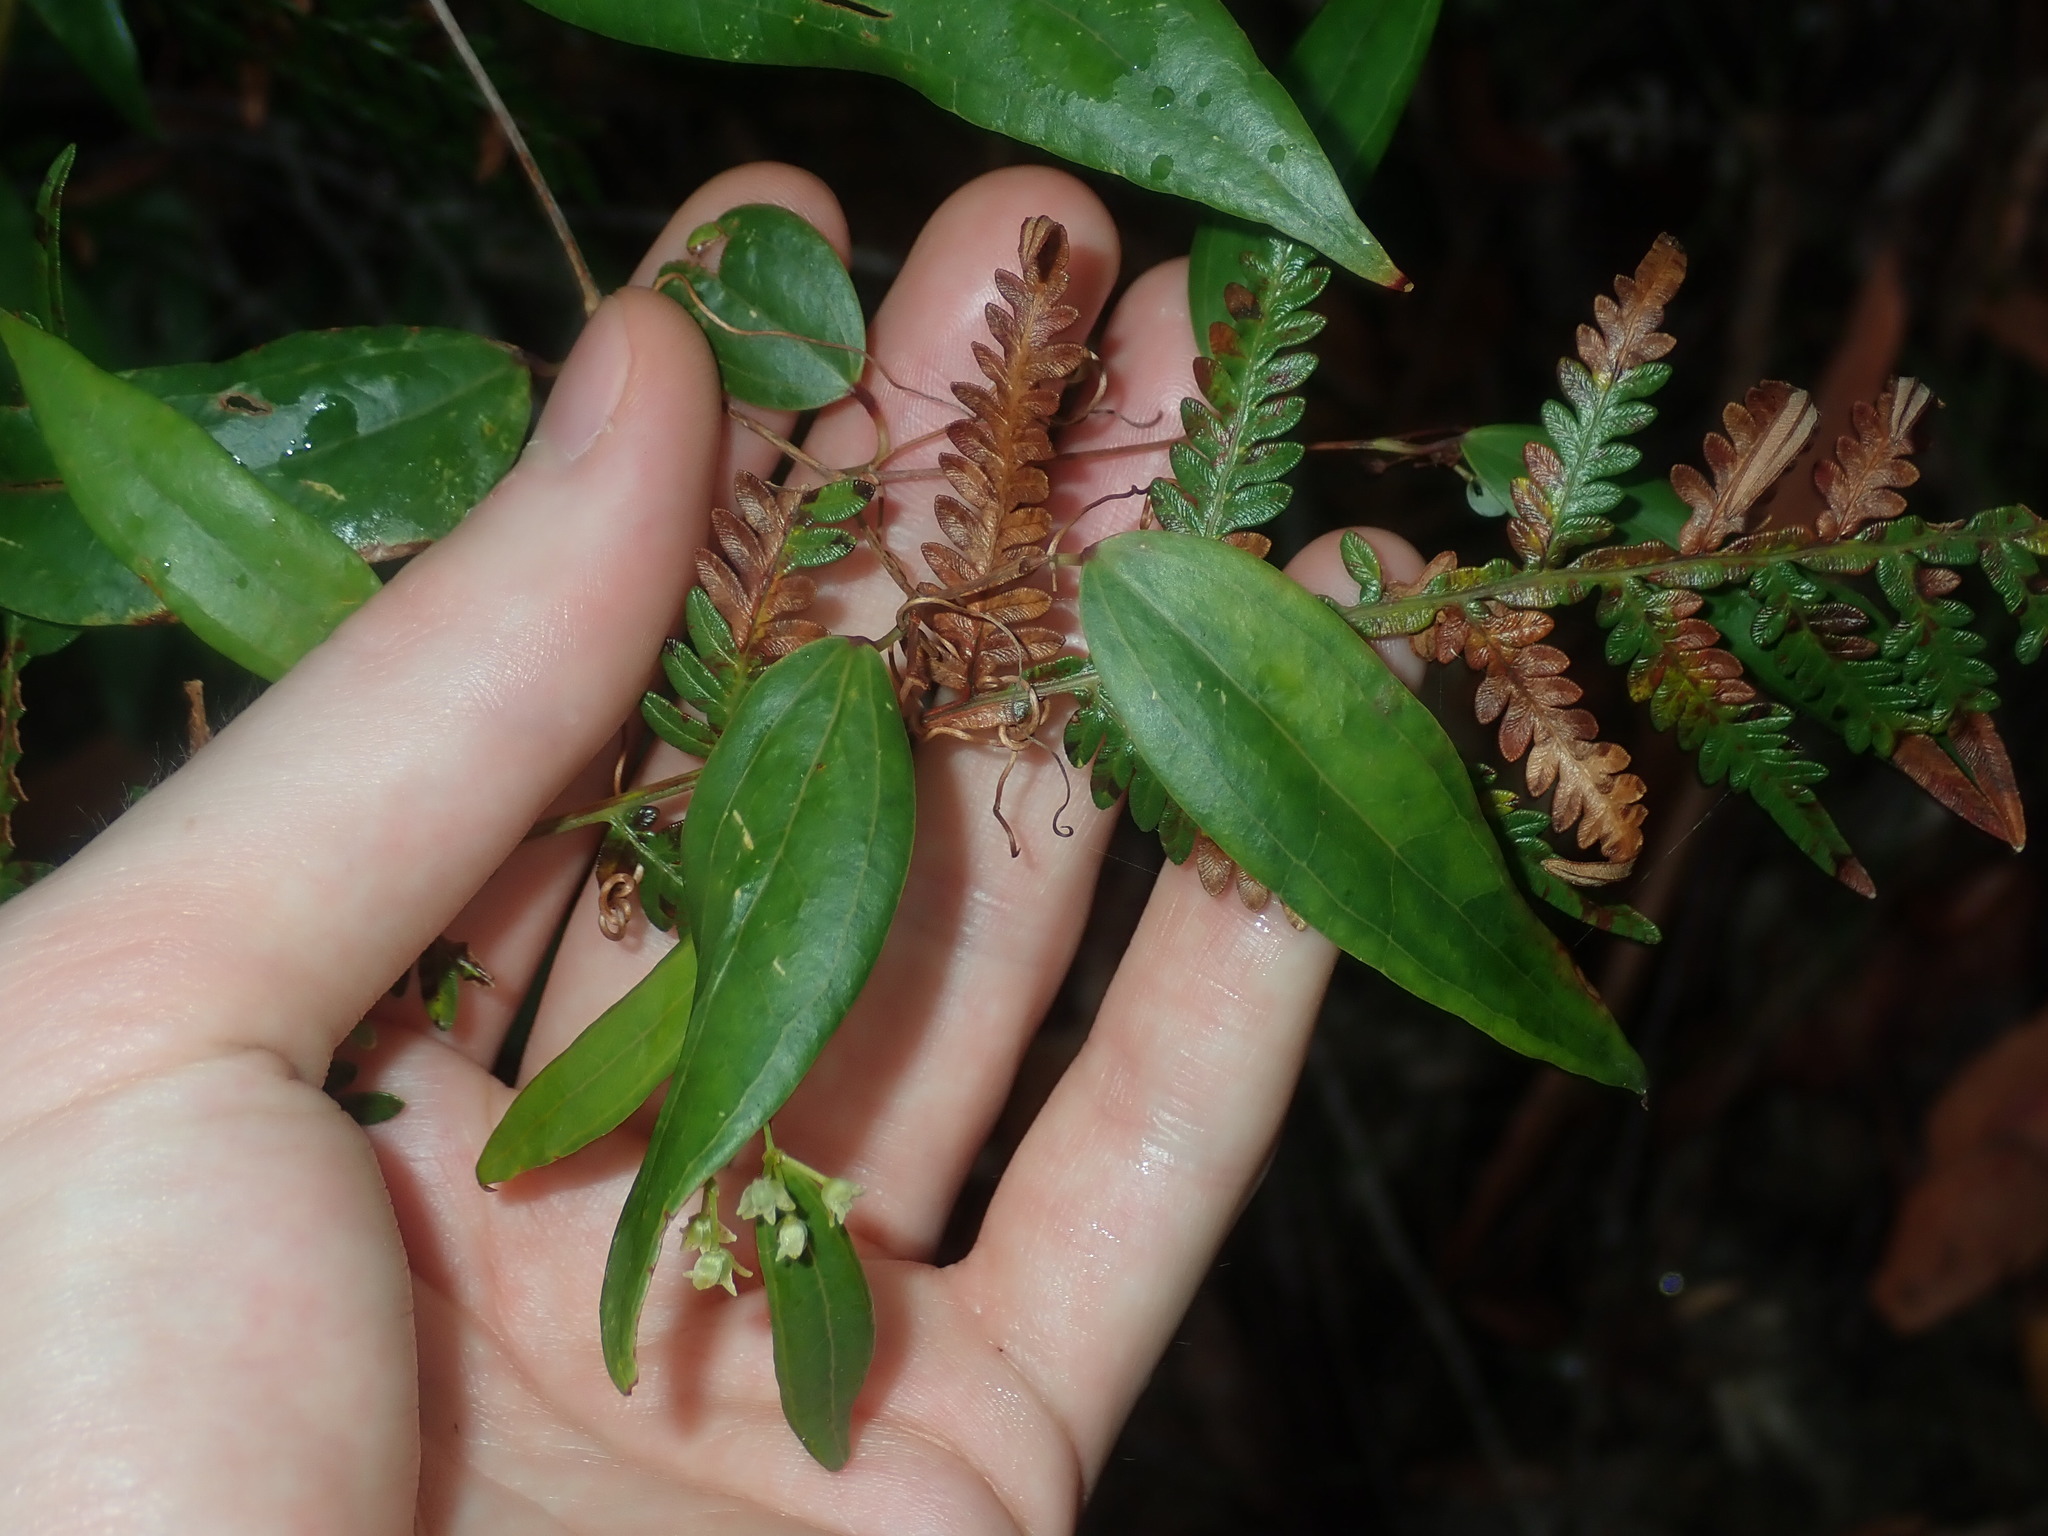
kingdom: Plantae
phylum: Tracheophyta
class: Liliopsida
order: Liliales
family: Smilacaceae
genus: Smilax
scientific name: Smilax glyciphylla
